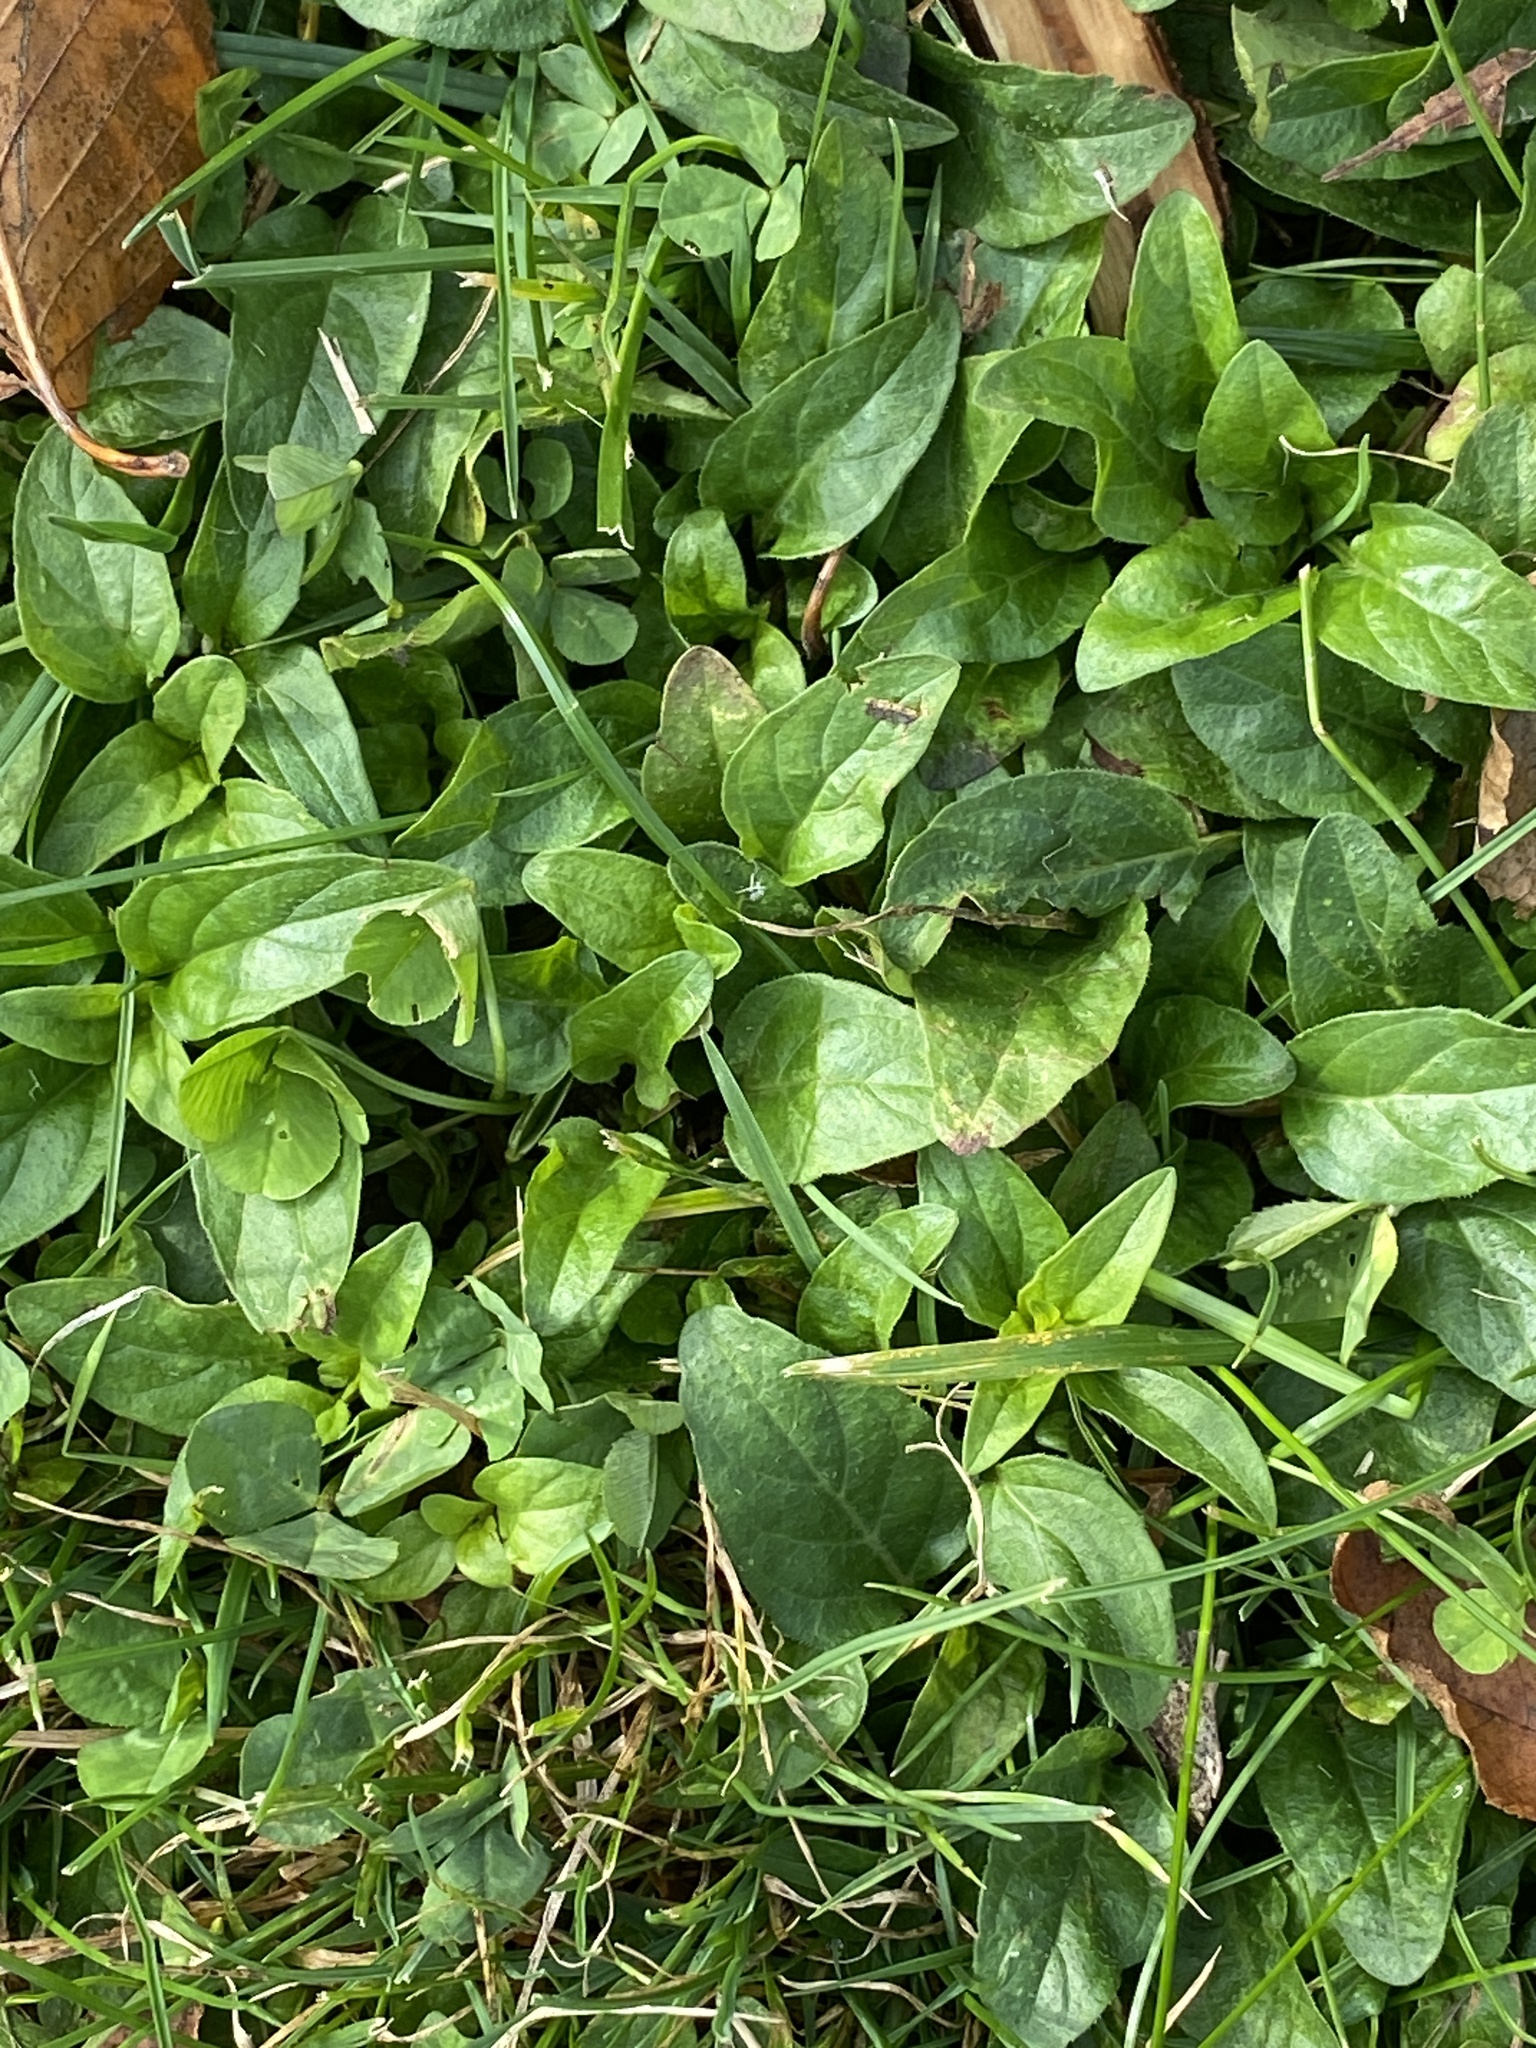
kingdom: Plantae
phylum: Tracheophyta
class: Magnoliopsida
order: Lamiales
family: Lamiaceae
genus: Prunella
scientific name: Prunella vulgaris
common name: Heal-all
